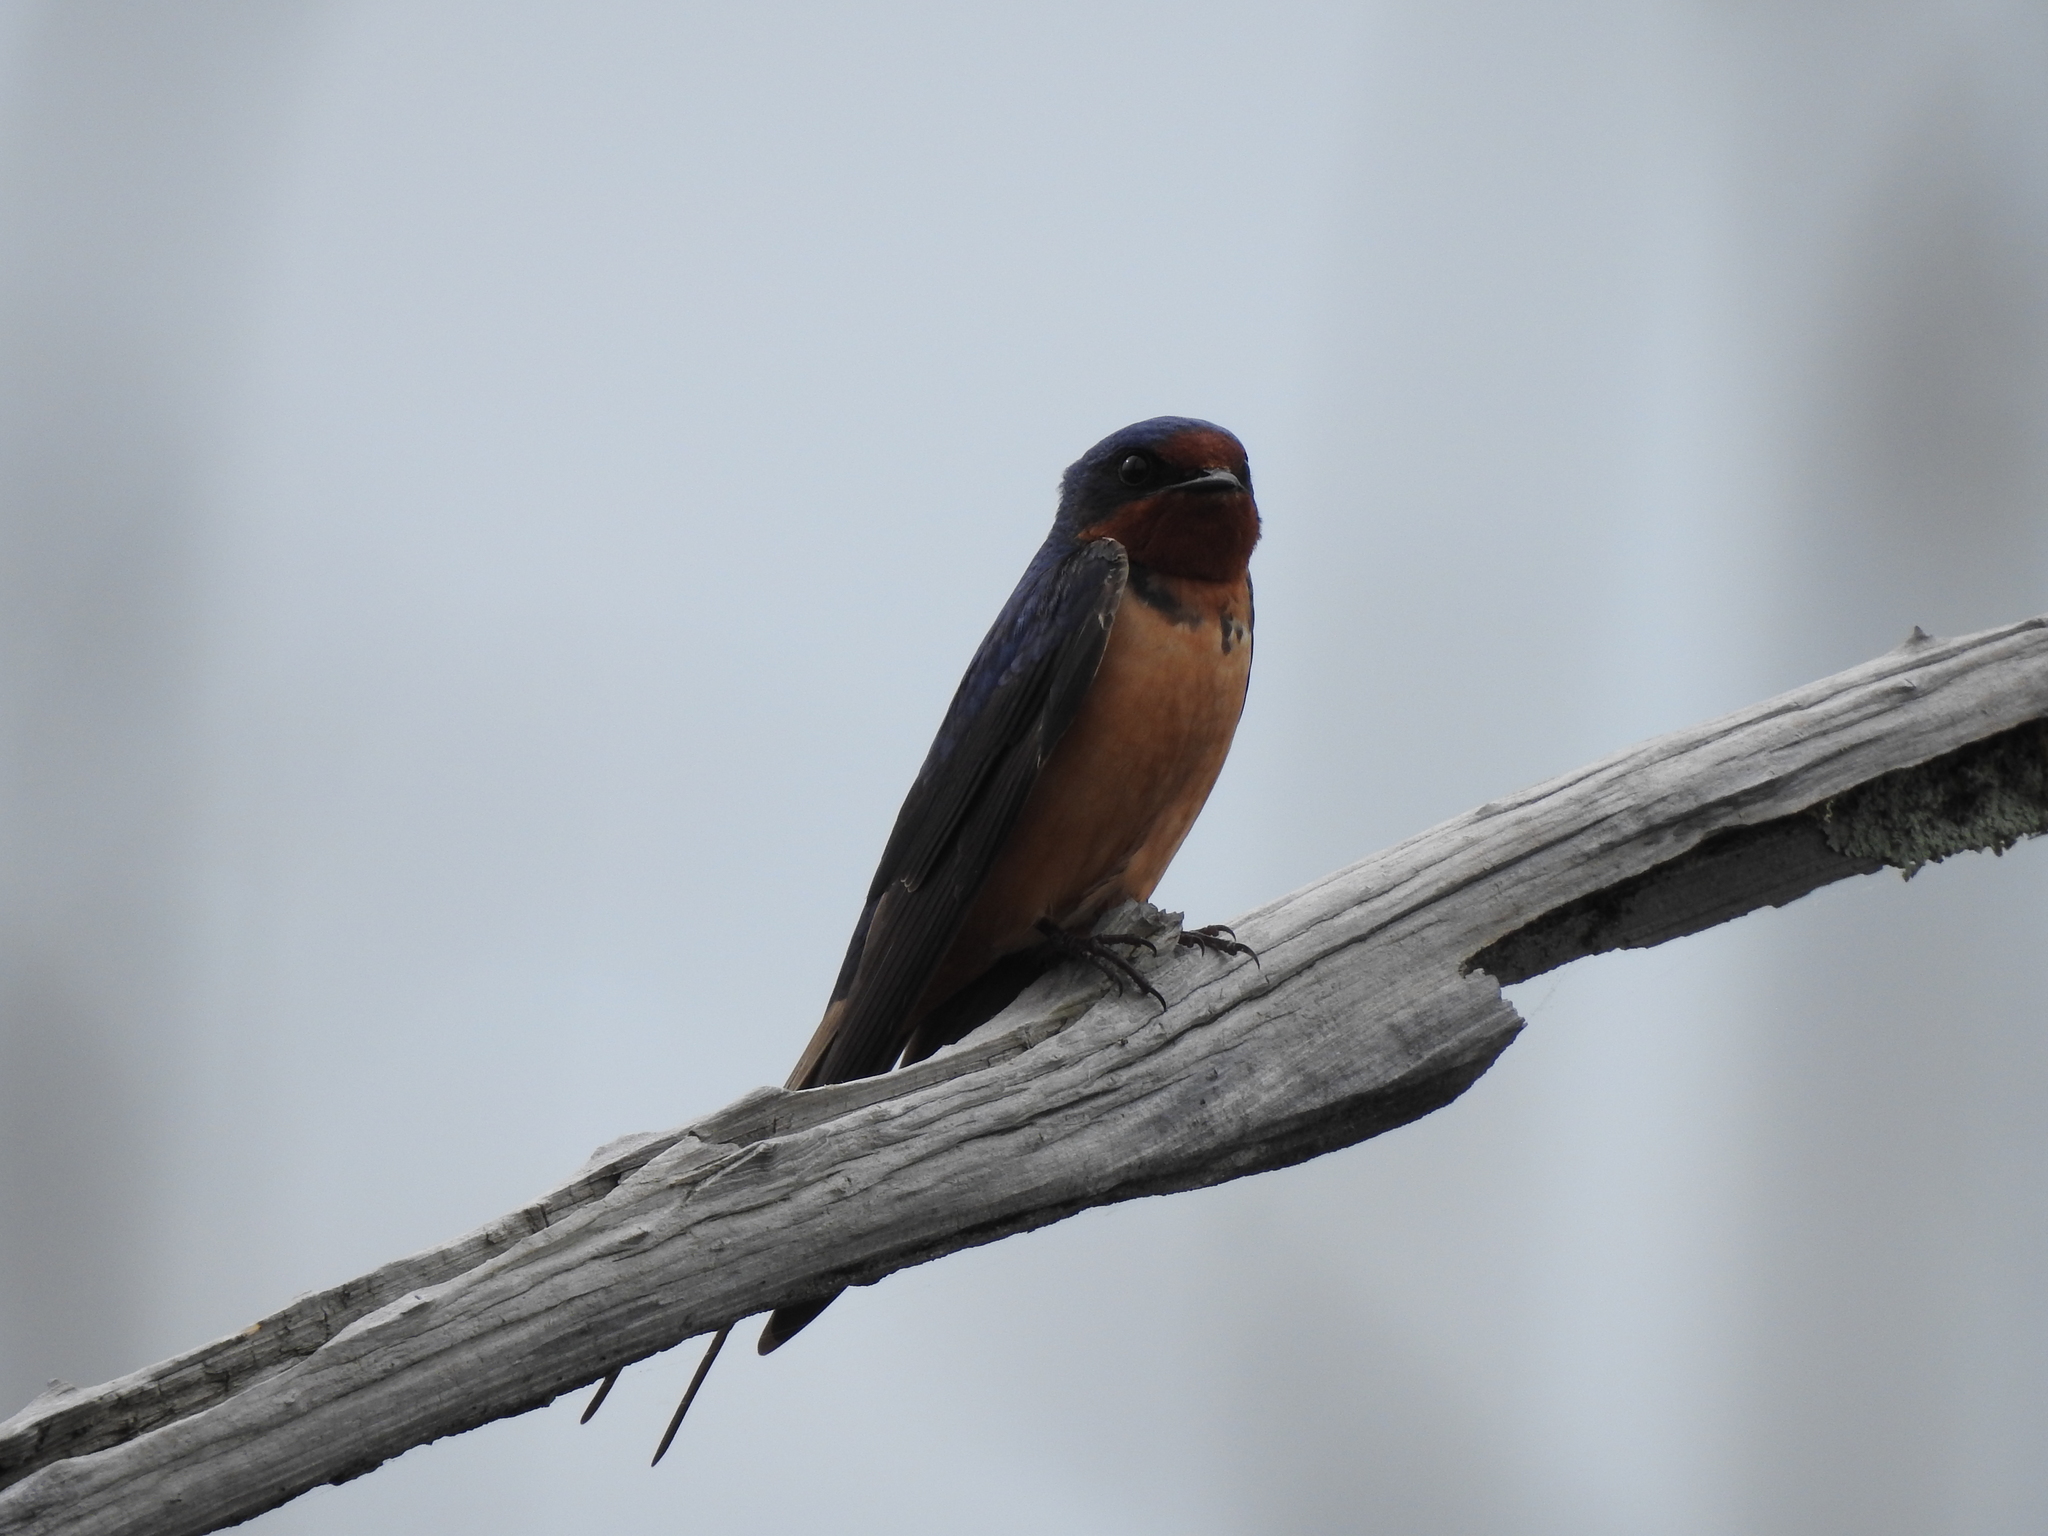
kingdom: Animalia
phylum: Chordata
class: Aves
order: Passeriformes
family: Hirundinidae
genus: Hirundo
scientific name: Hirundo rustica
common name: Barn swallow
